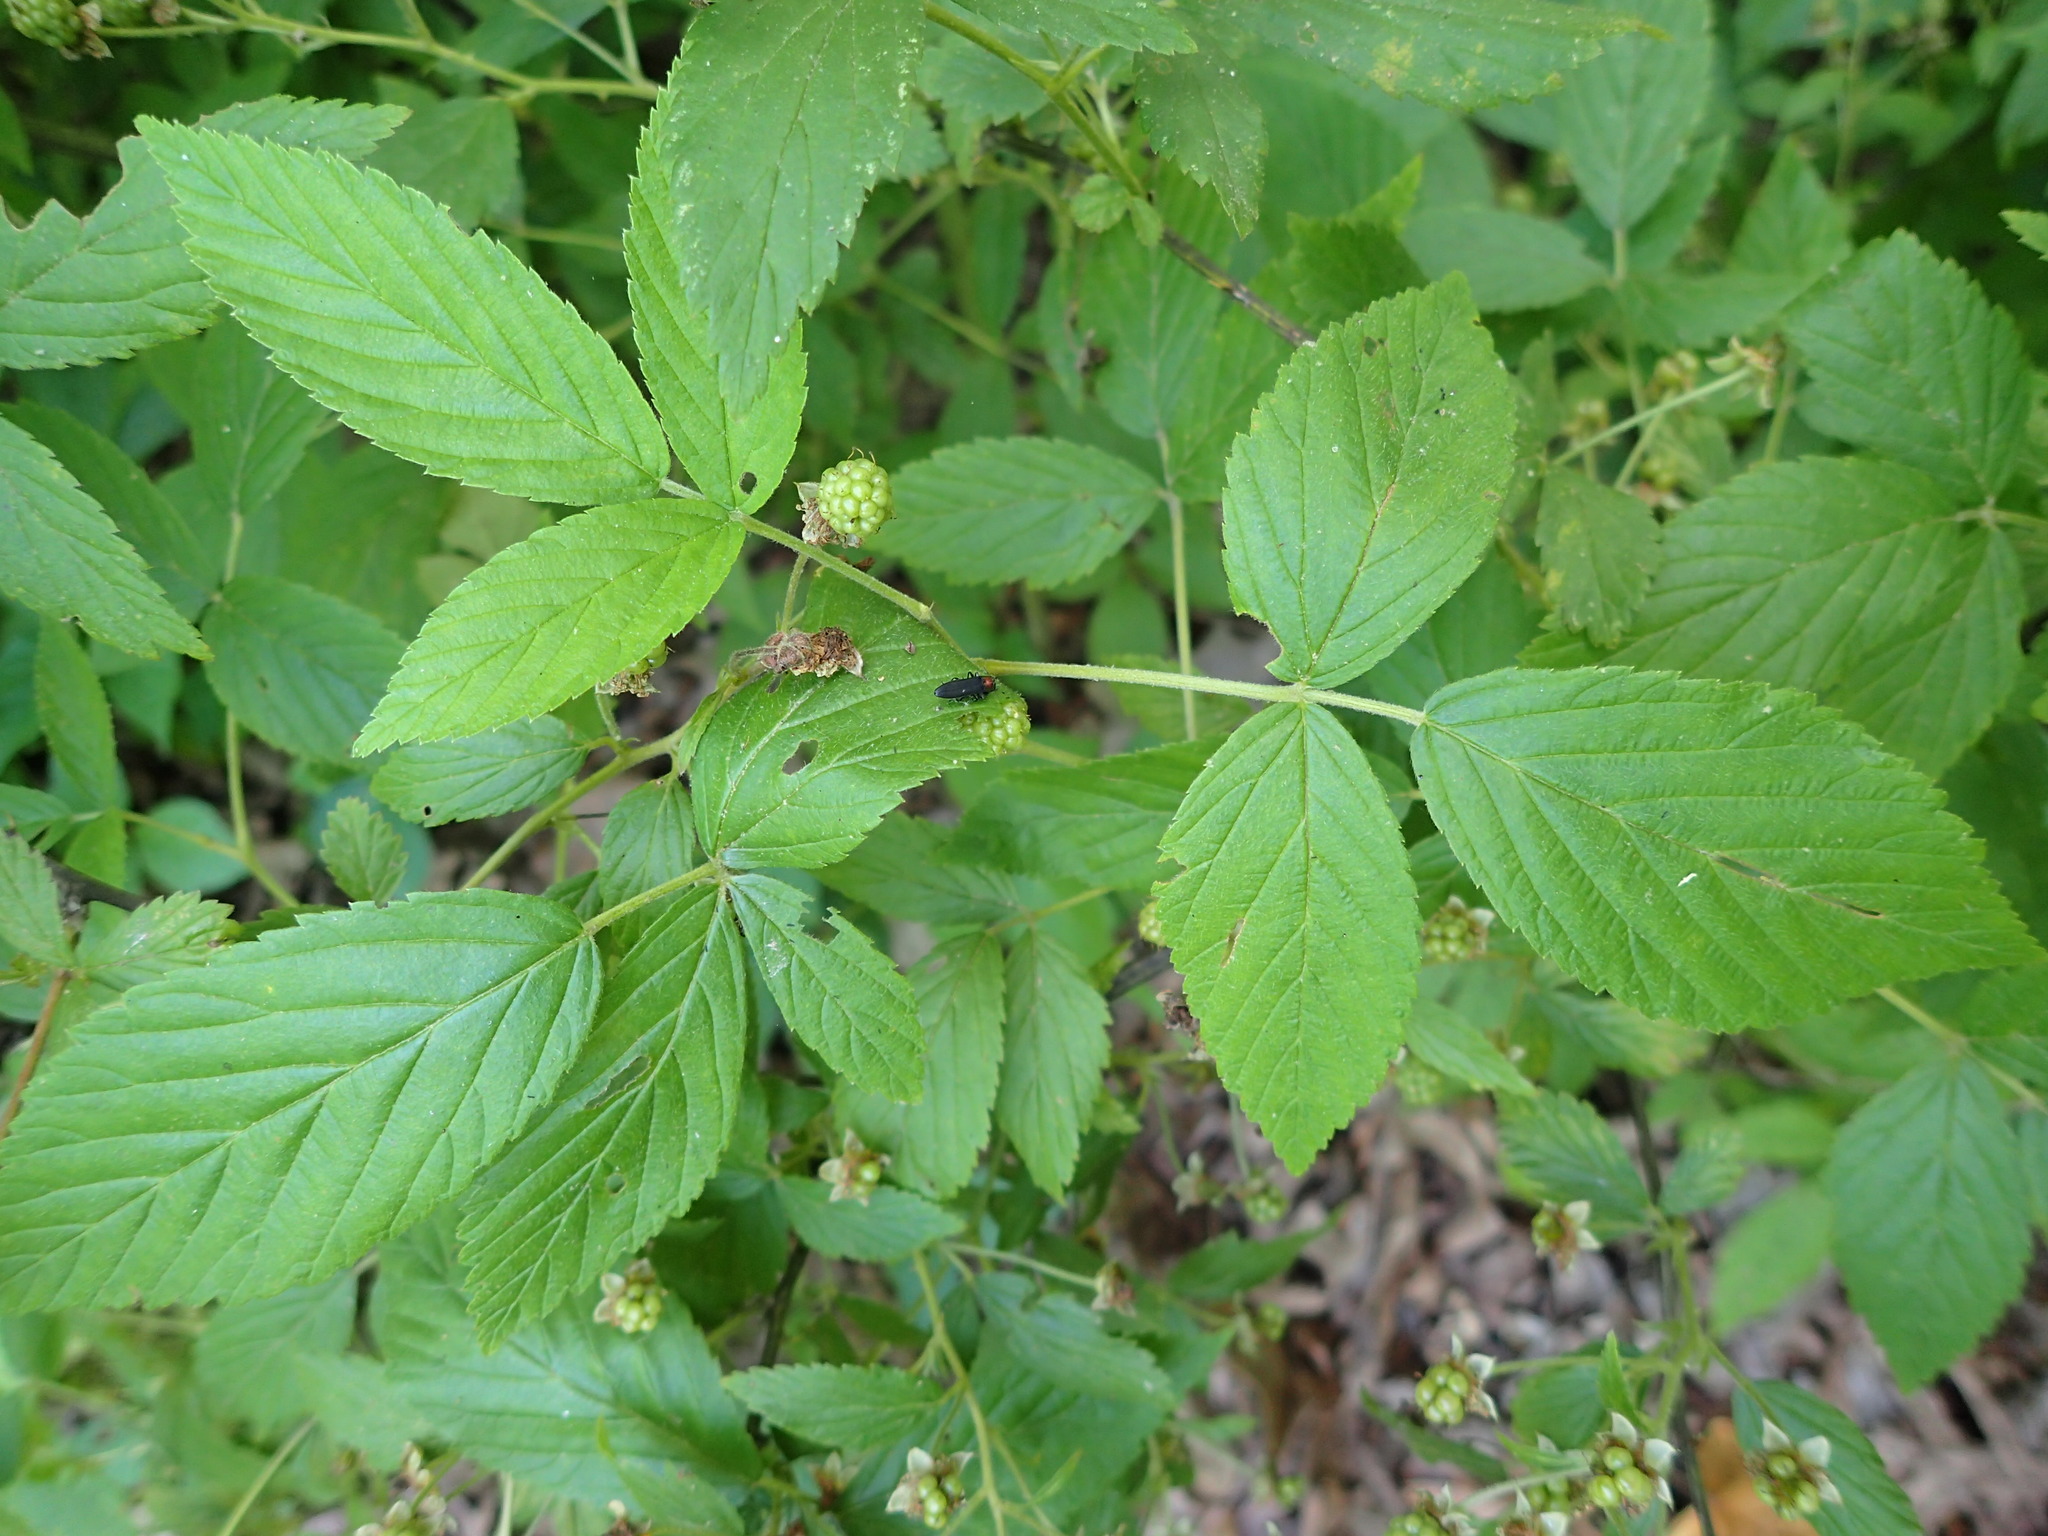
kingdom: Plantae
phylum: Tracheophyta
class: Magnoliopsida
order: Rosales
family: Rosaceae
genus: Rubus
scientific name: Rubus allegheniensis
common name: Allegheny blackberry
